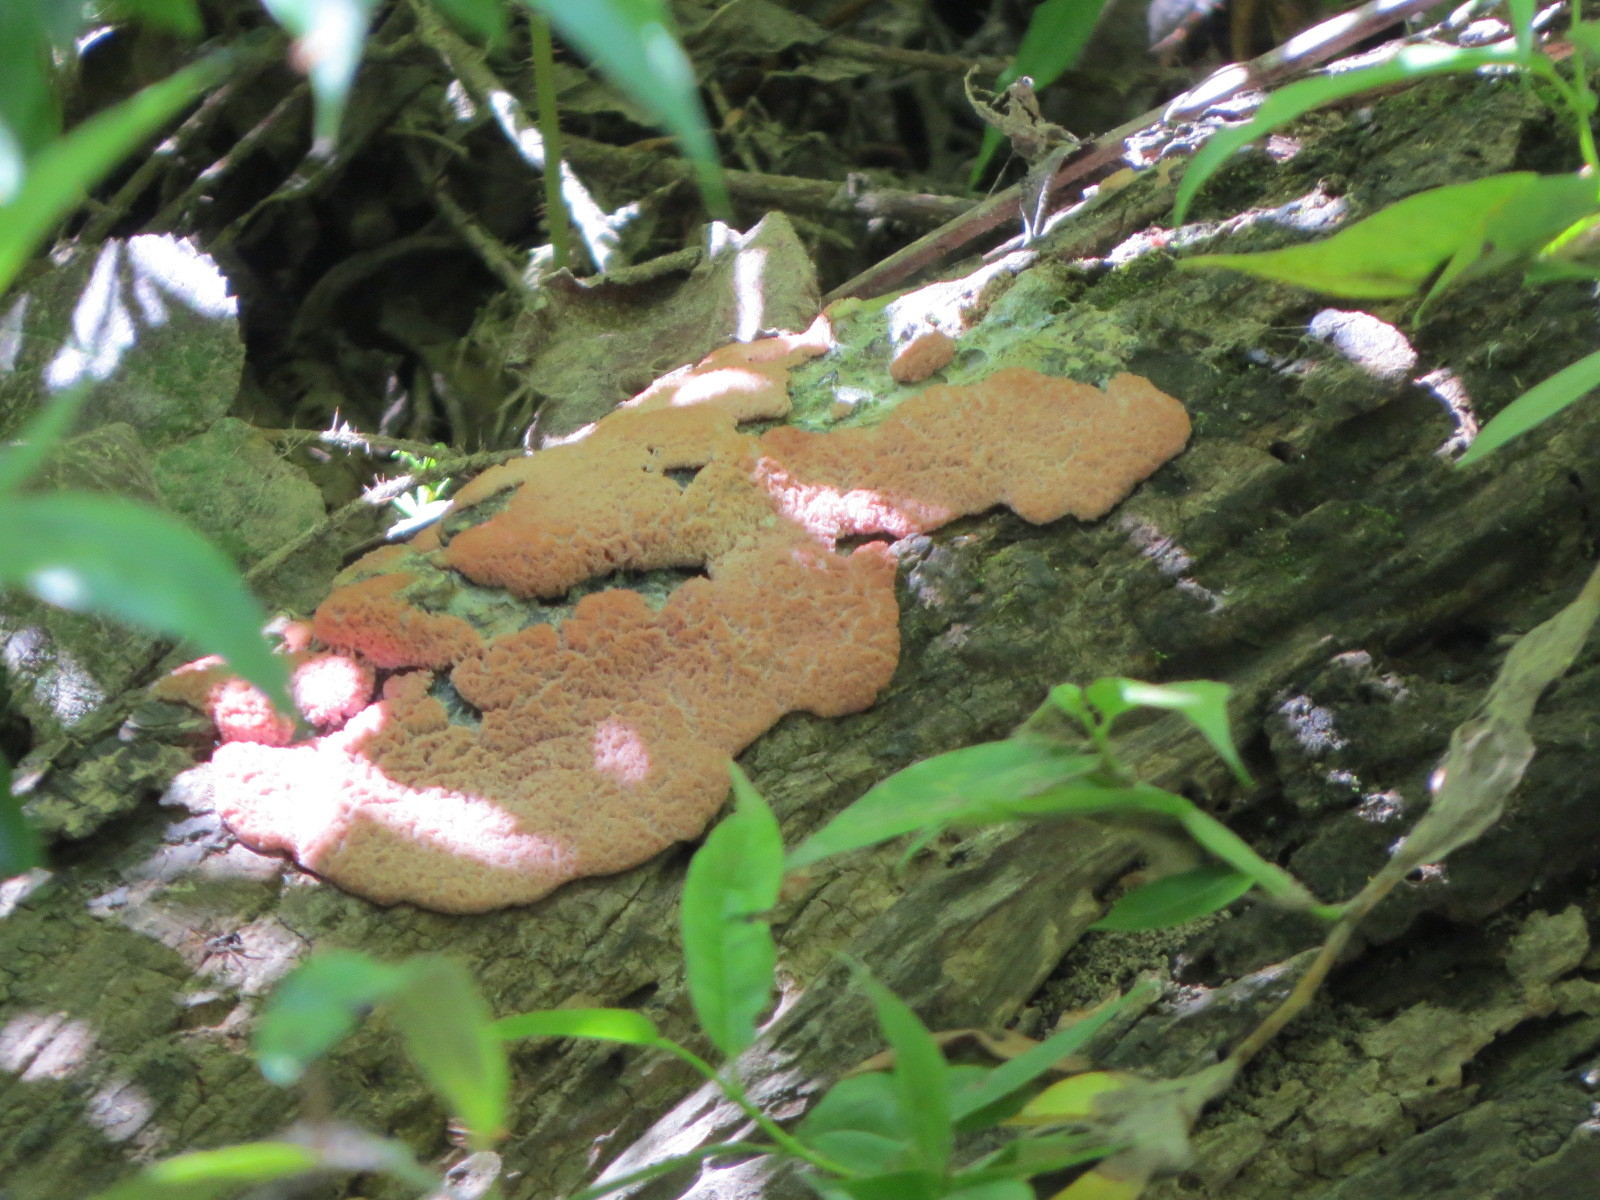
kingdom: Protozoa
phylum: Mycetozoa
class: Myxomycetes
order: Physarales
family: Physaraceae
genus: Fuligo
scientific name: Fuligo septica
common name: Dog vomit slime mold
